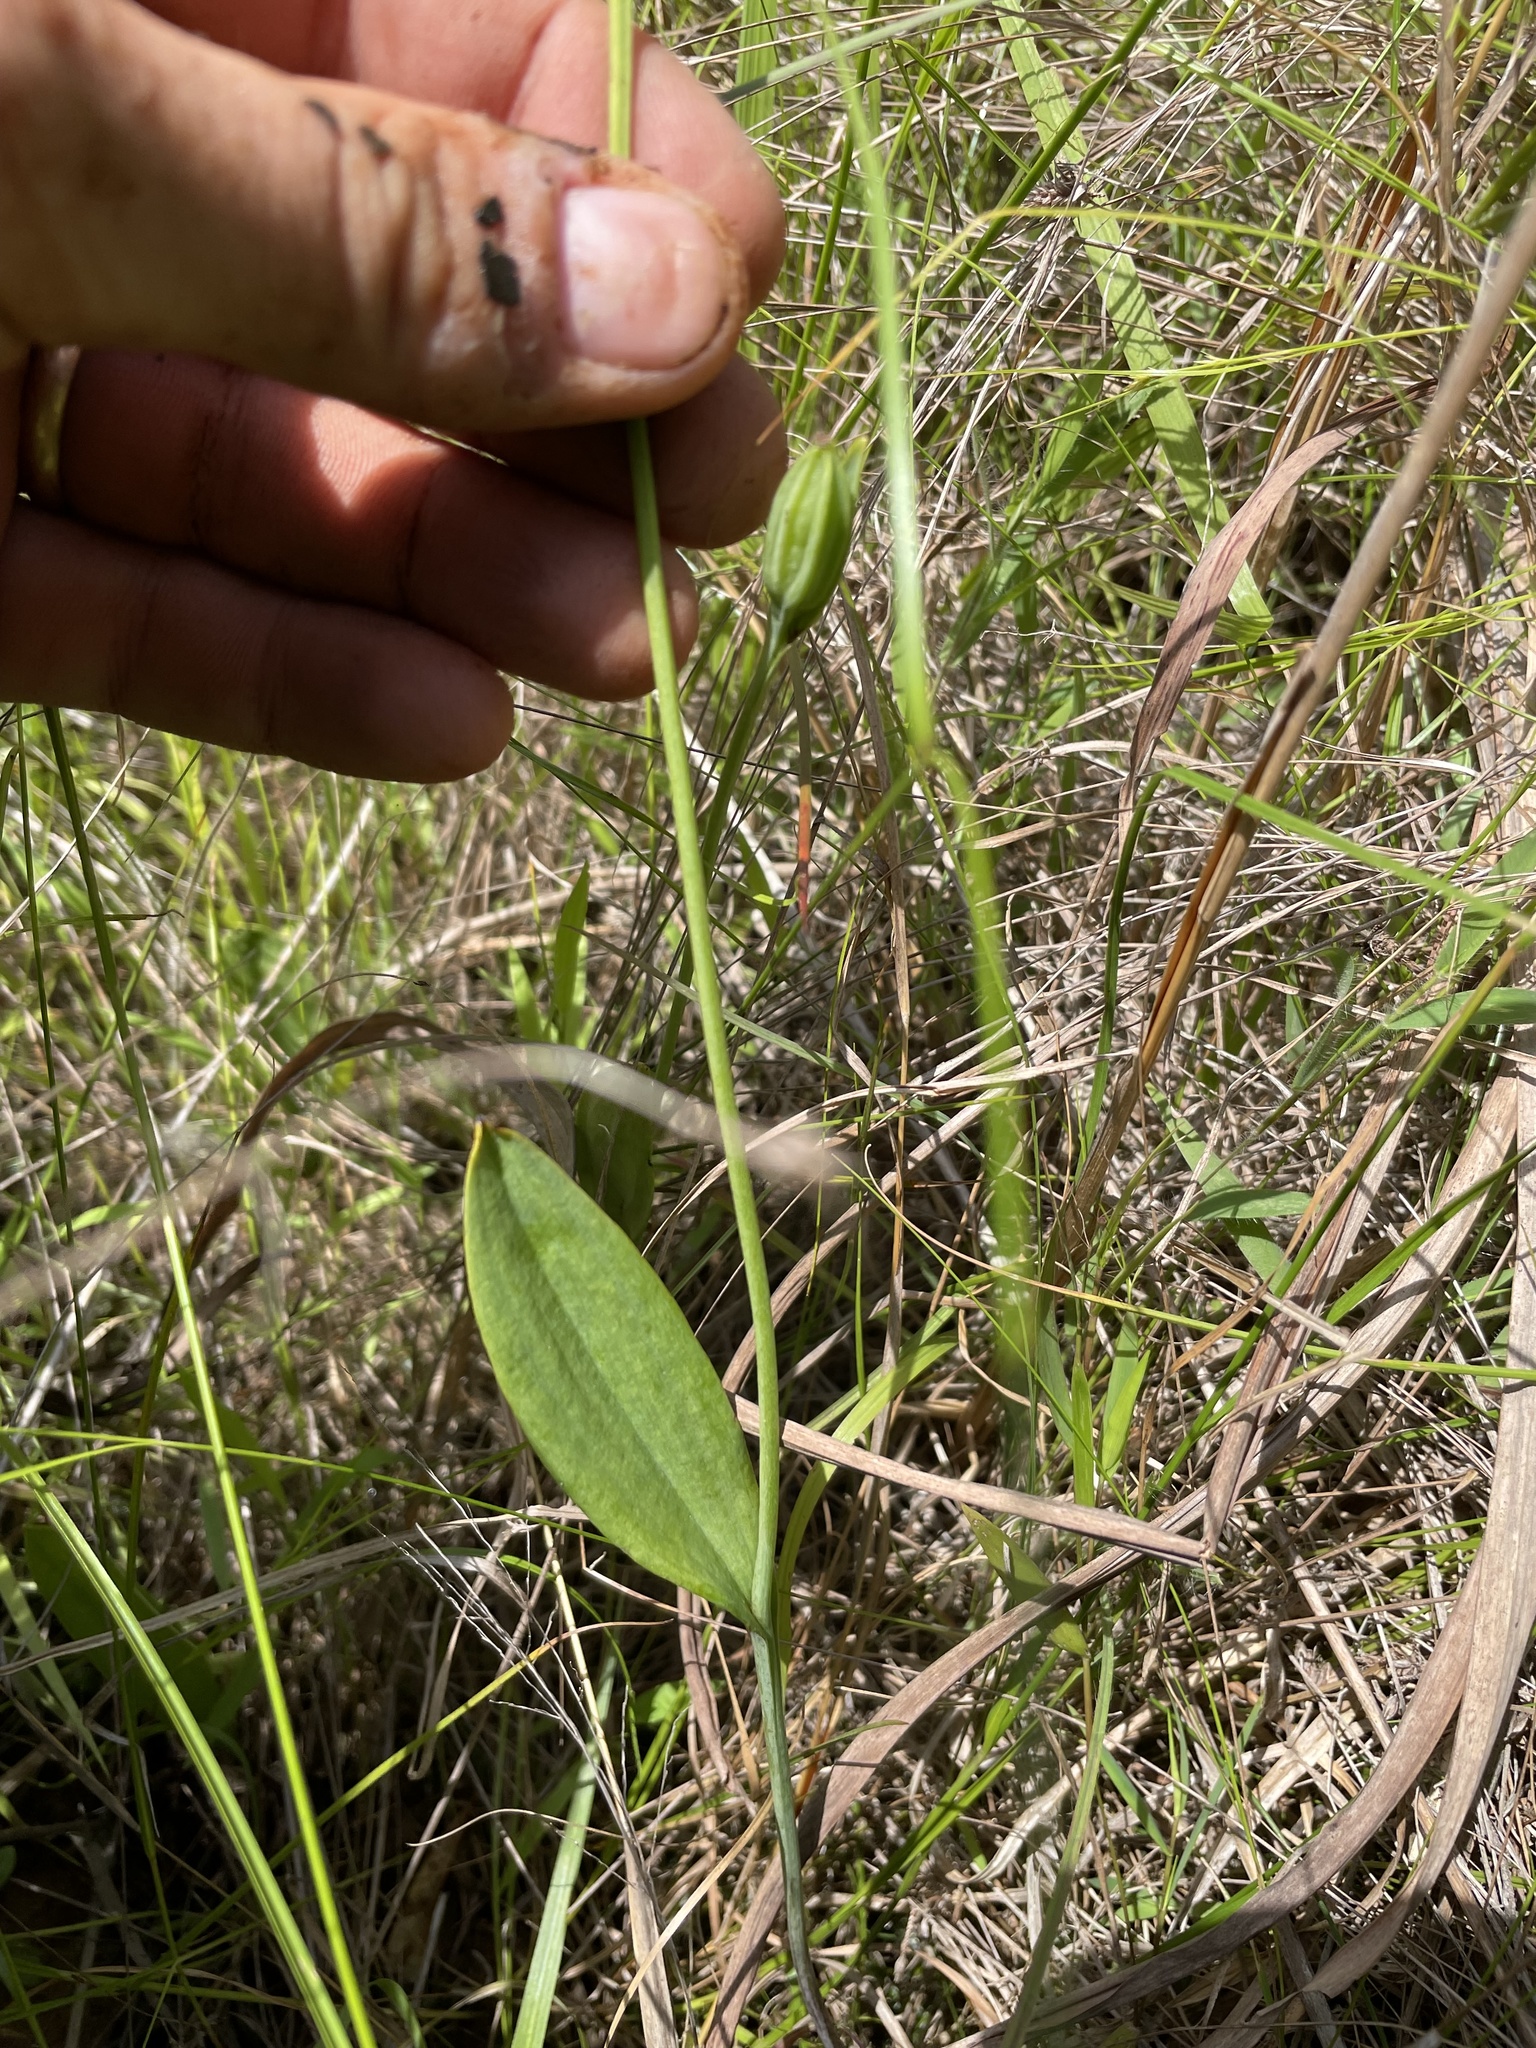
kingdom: Plantae
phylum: Tracheophyta
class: Liliopsida
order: Asparagales
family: Orchidaceae
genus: Pogonia
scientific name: Pogonia ophioglossoides
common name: Rose pogonia
